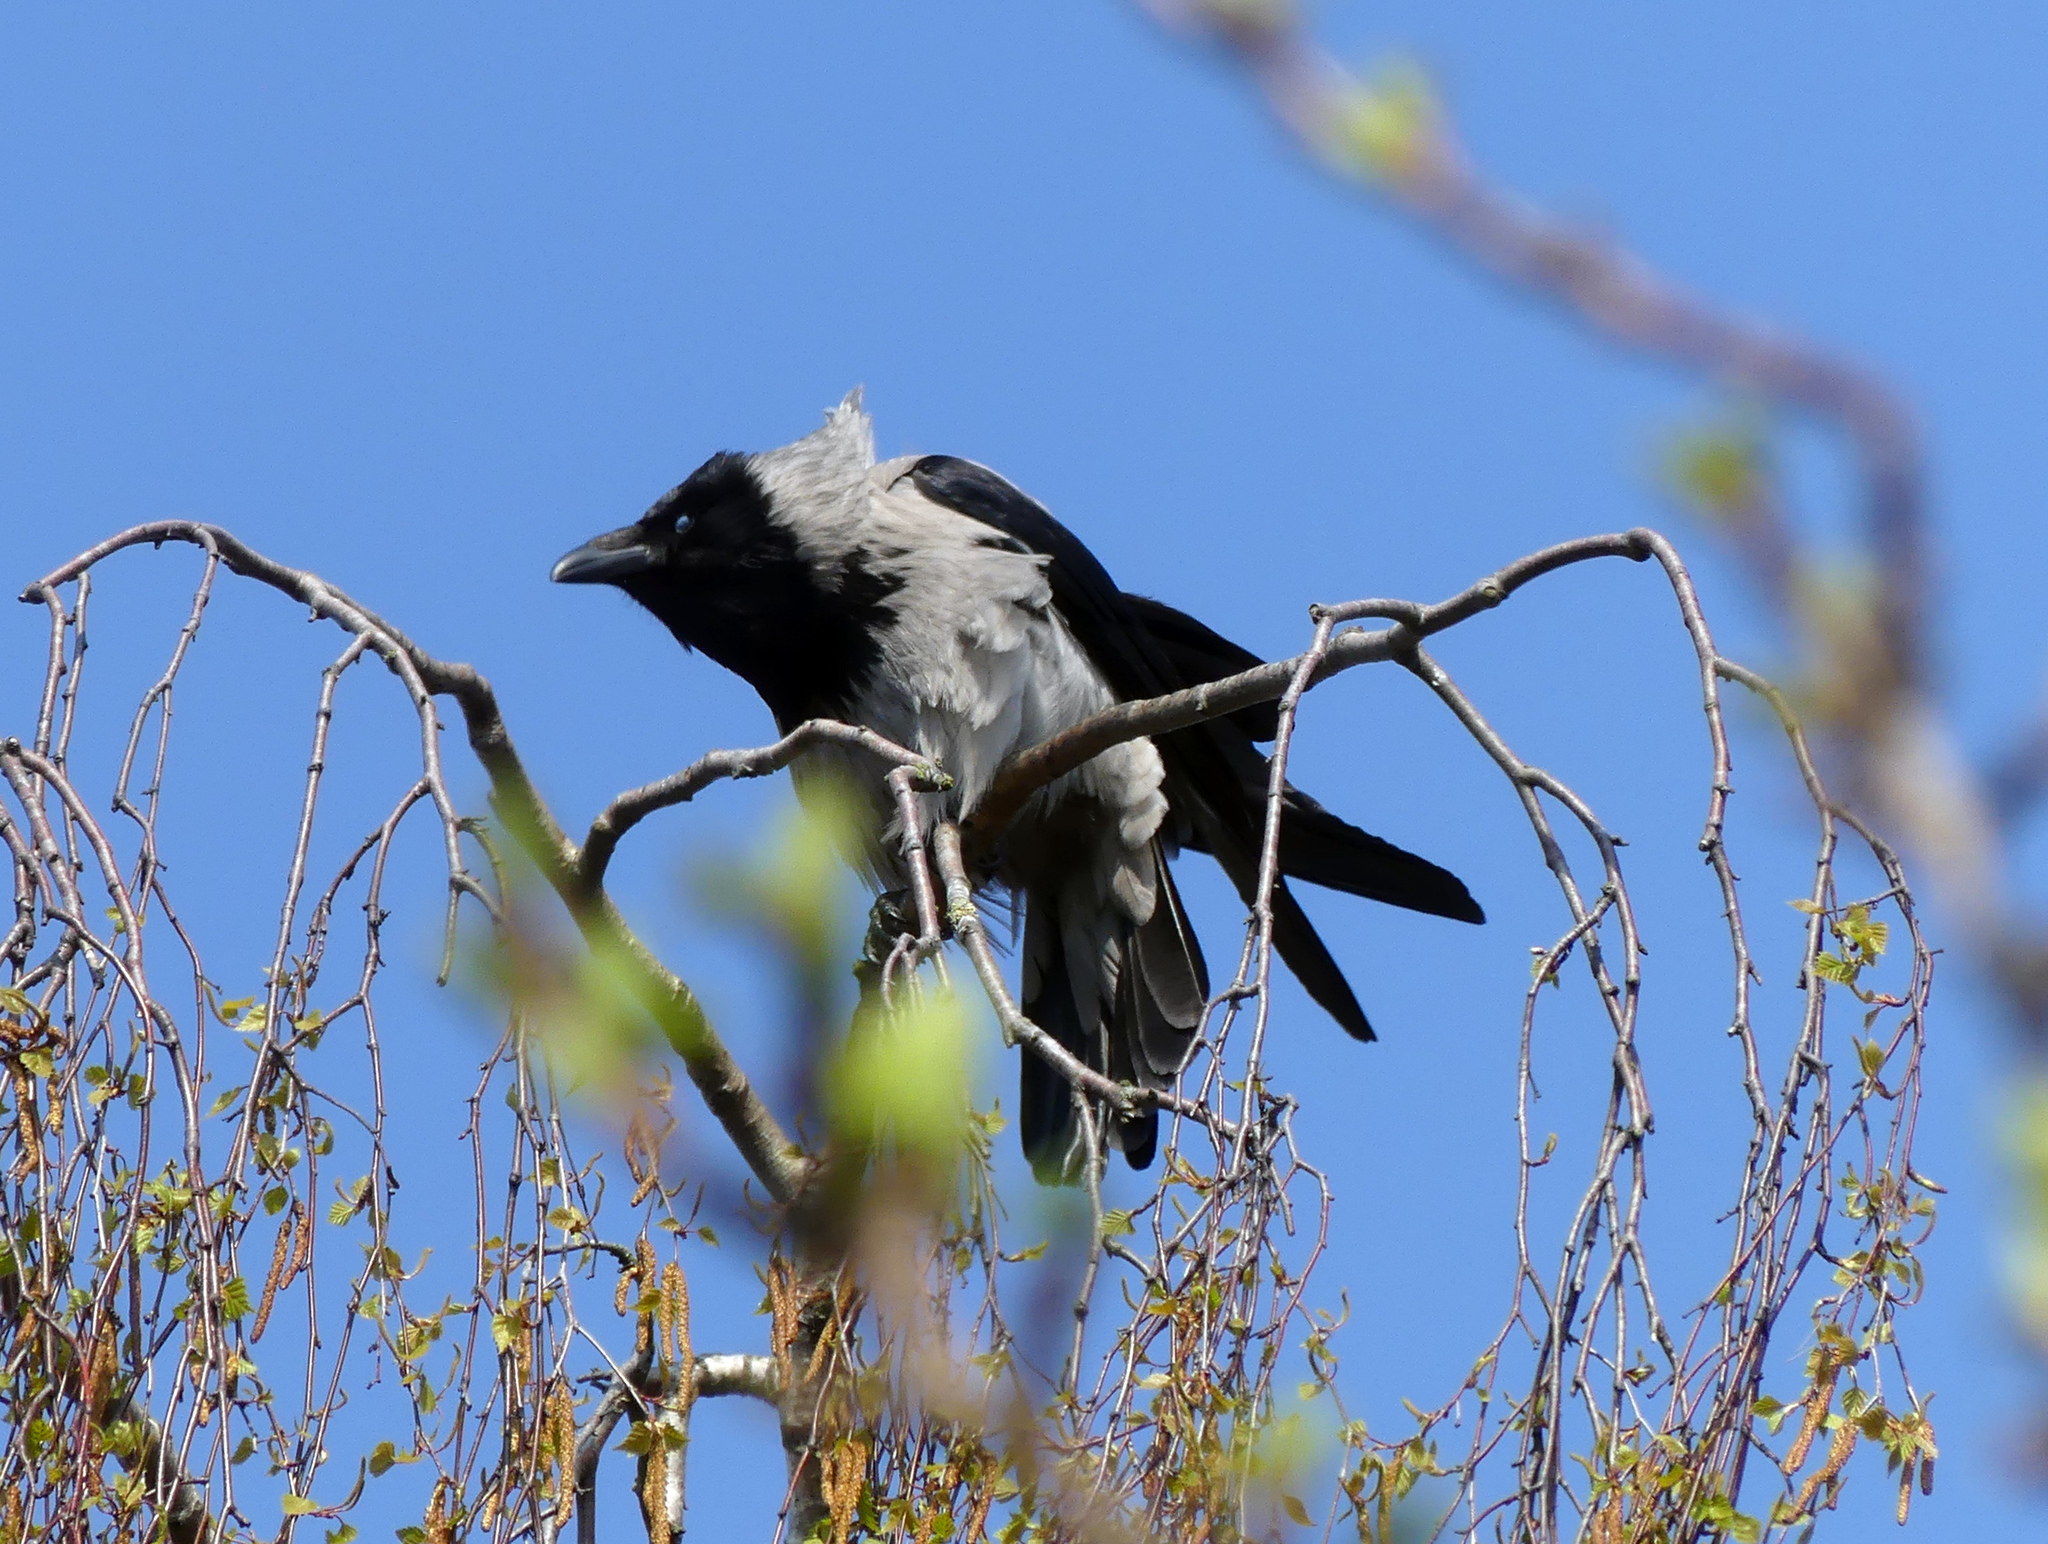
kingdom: Animalia
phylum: Chordata
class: Aves
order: Passeriformes
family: Corvidae
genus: Corvus
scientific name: Corvus cornix
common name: Hooded crow
